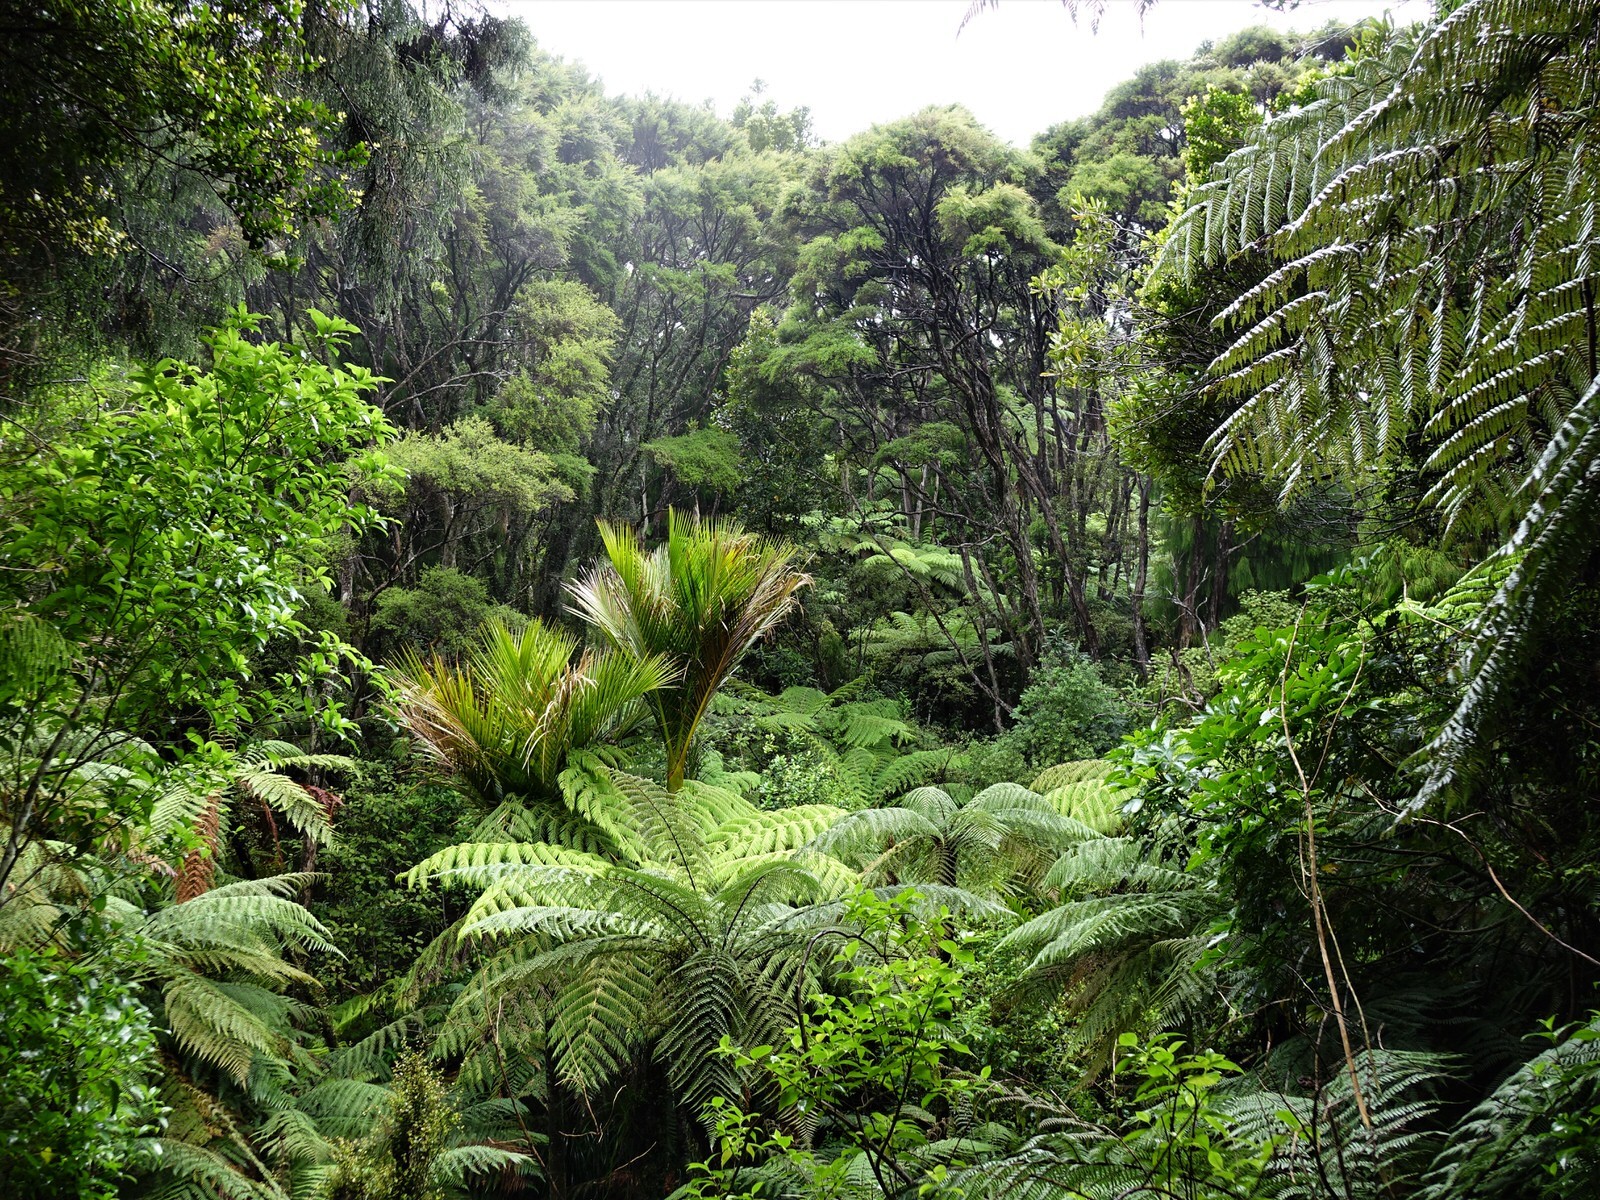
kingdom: Plantae
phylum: Tracheophyta
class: Liliopsida
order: Arecales
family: Arecaceae
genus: Rhopalostylis
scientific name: Rhopalostylis sapida
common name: Feather-duster palm
